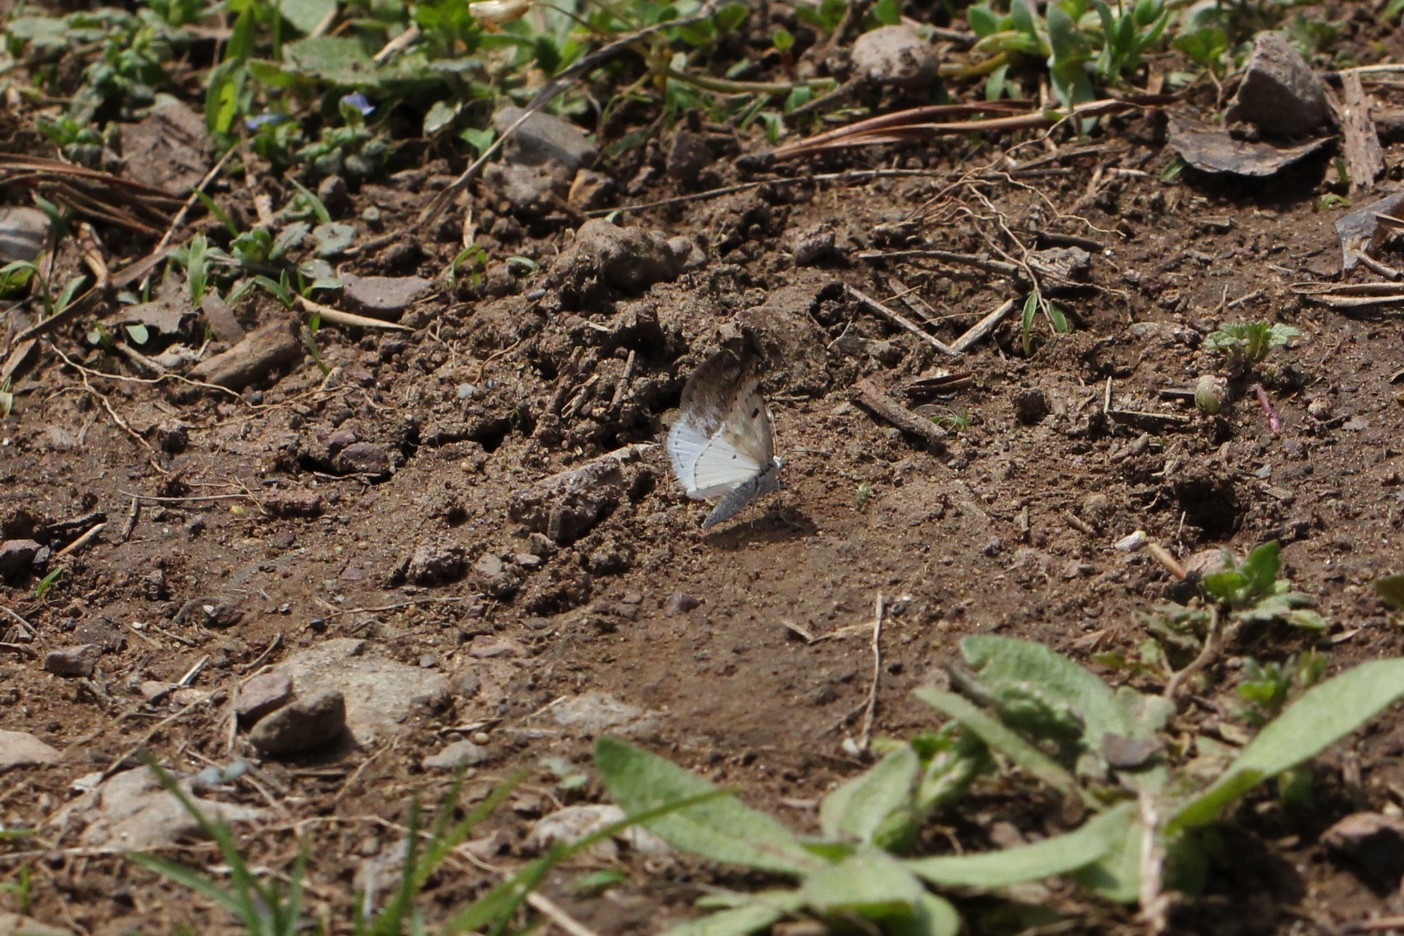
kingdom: Animalia
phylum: Arthropoda
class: Insecta
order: Lepidoptera
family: Geometridae
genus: Lomographa
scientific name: Lomographa semiclarata
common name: Bluish spring moth
